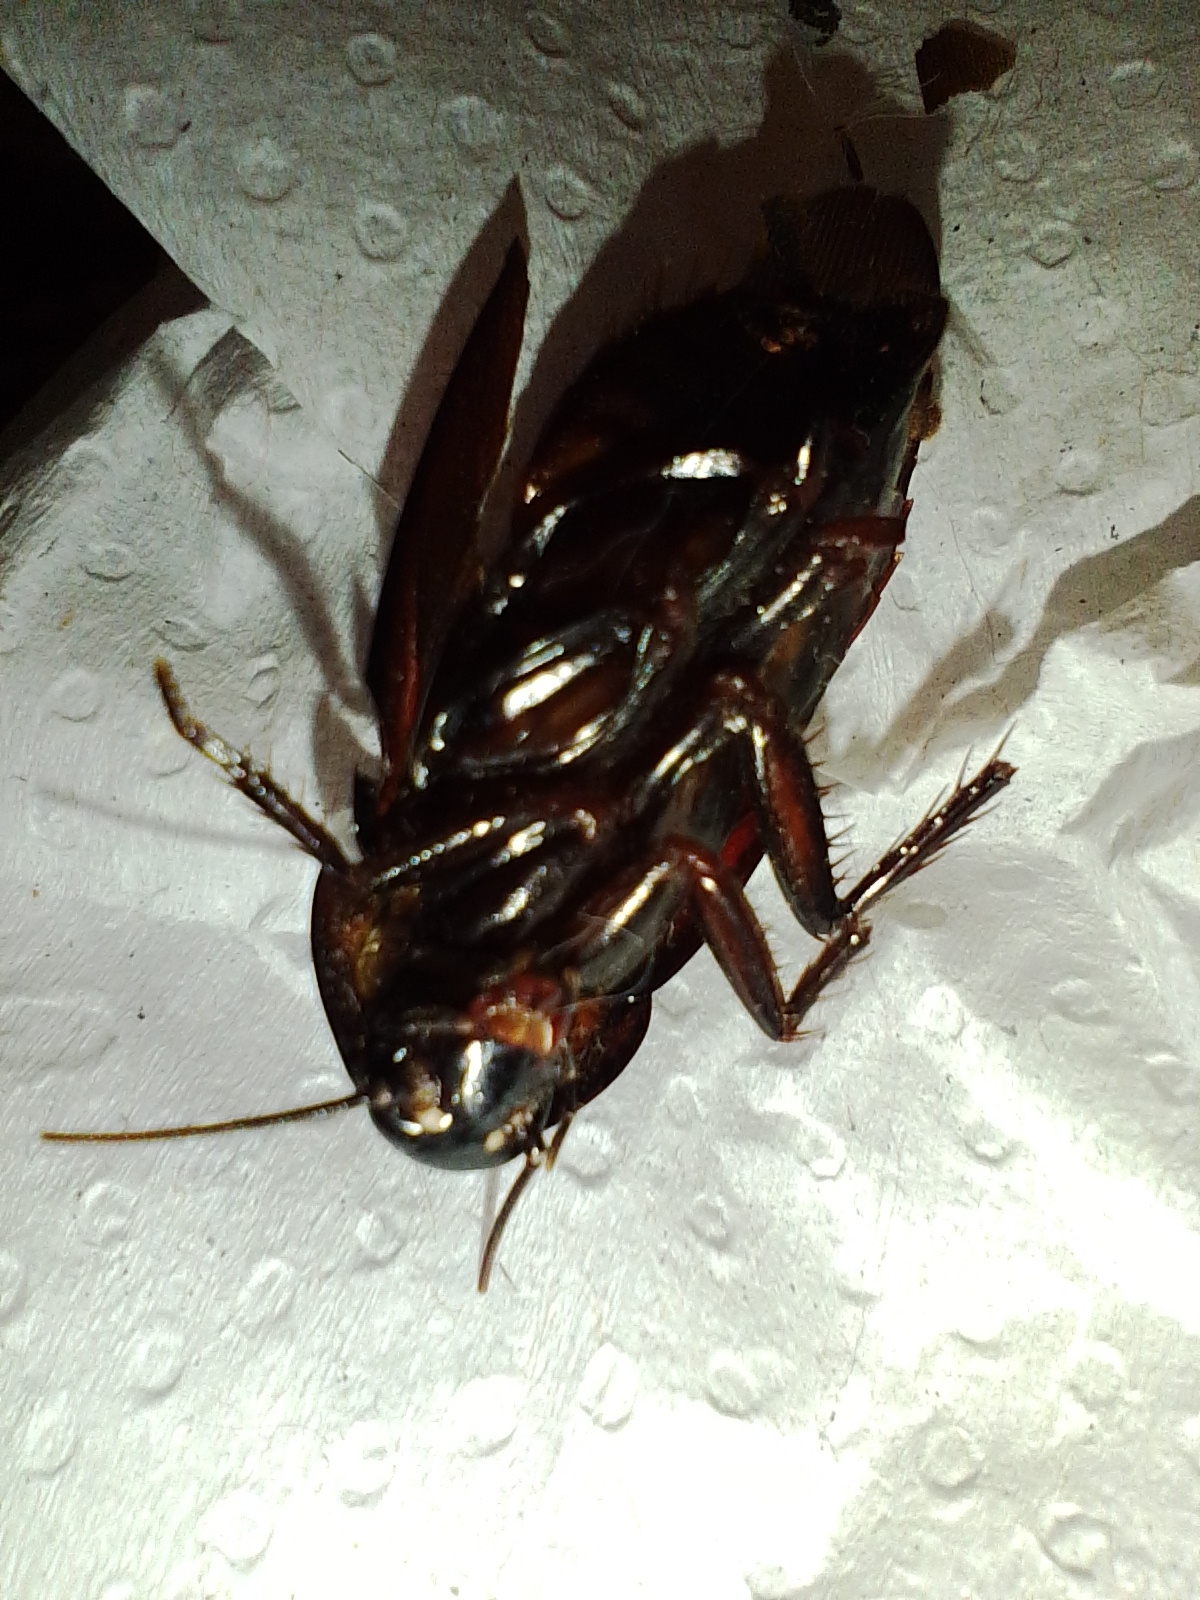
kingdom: Animalia
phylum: Arthropoda
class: Insecta
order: Blattodea
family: Blattidae
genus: Periplaneta
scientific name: Periplaneta fuliginosa
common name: Smokeybrown cockroad
